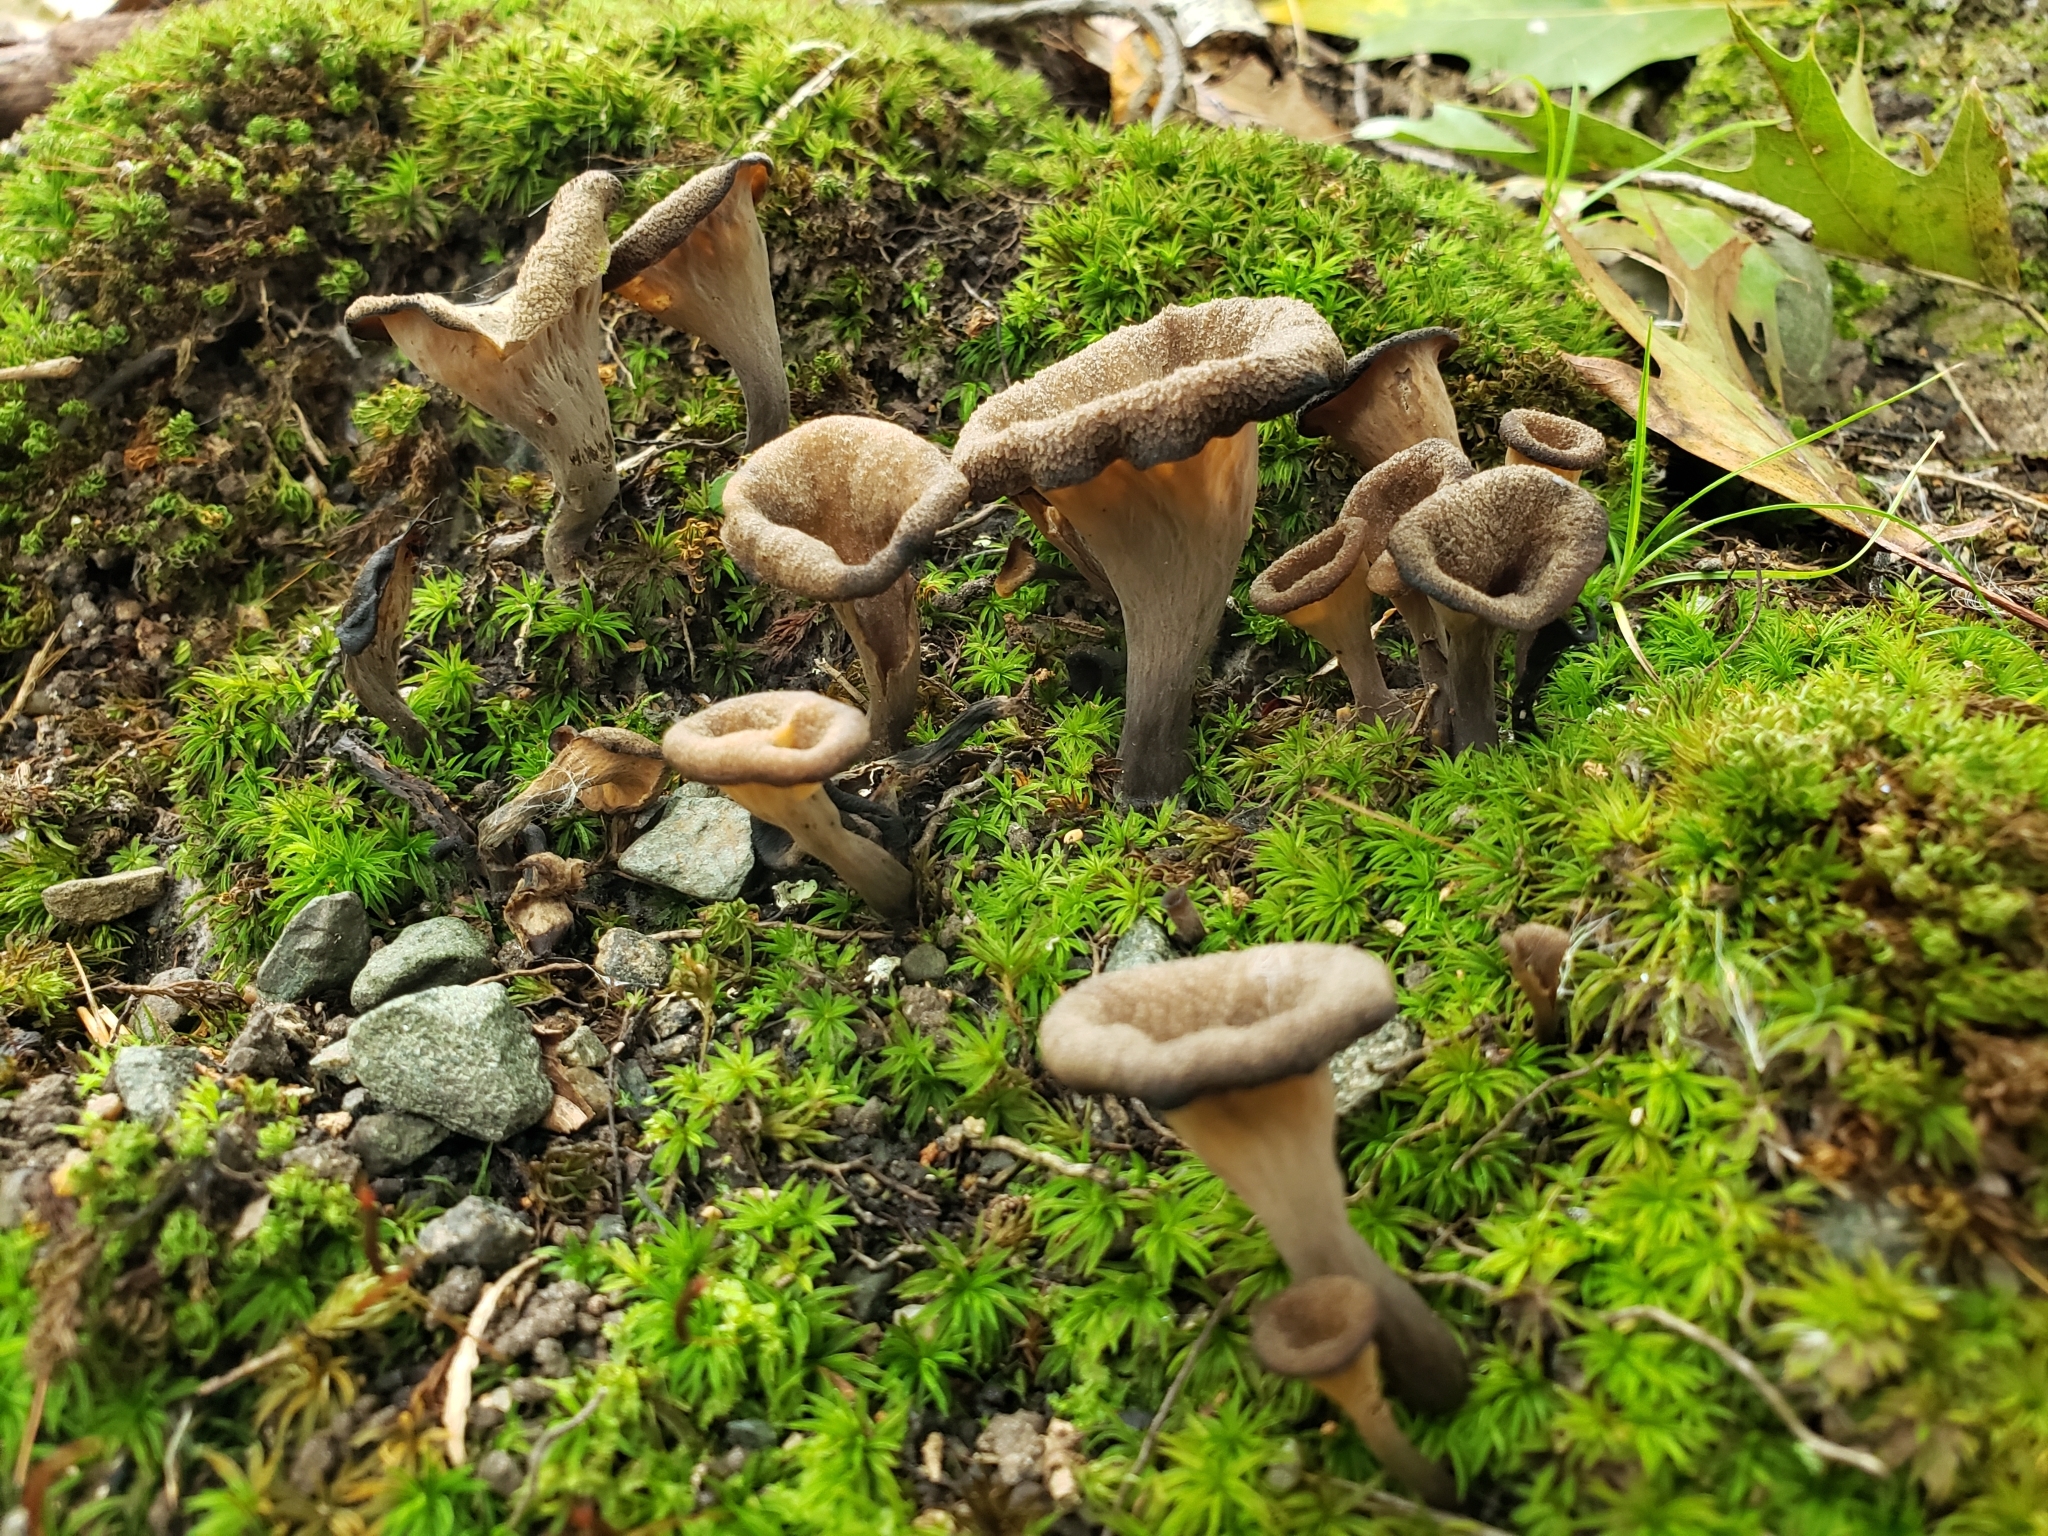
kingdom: Fungi
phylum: Basidiomycota
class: Agaricomycetes
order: Cantharellales
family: Hydnaceae
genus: Craterellus
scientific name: Craterellus cornucopioides
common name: Horn of plenty
